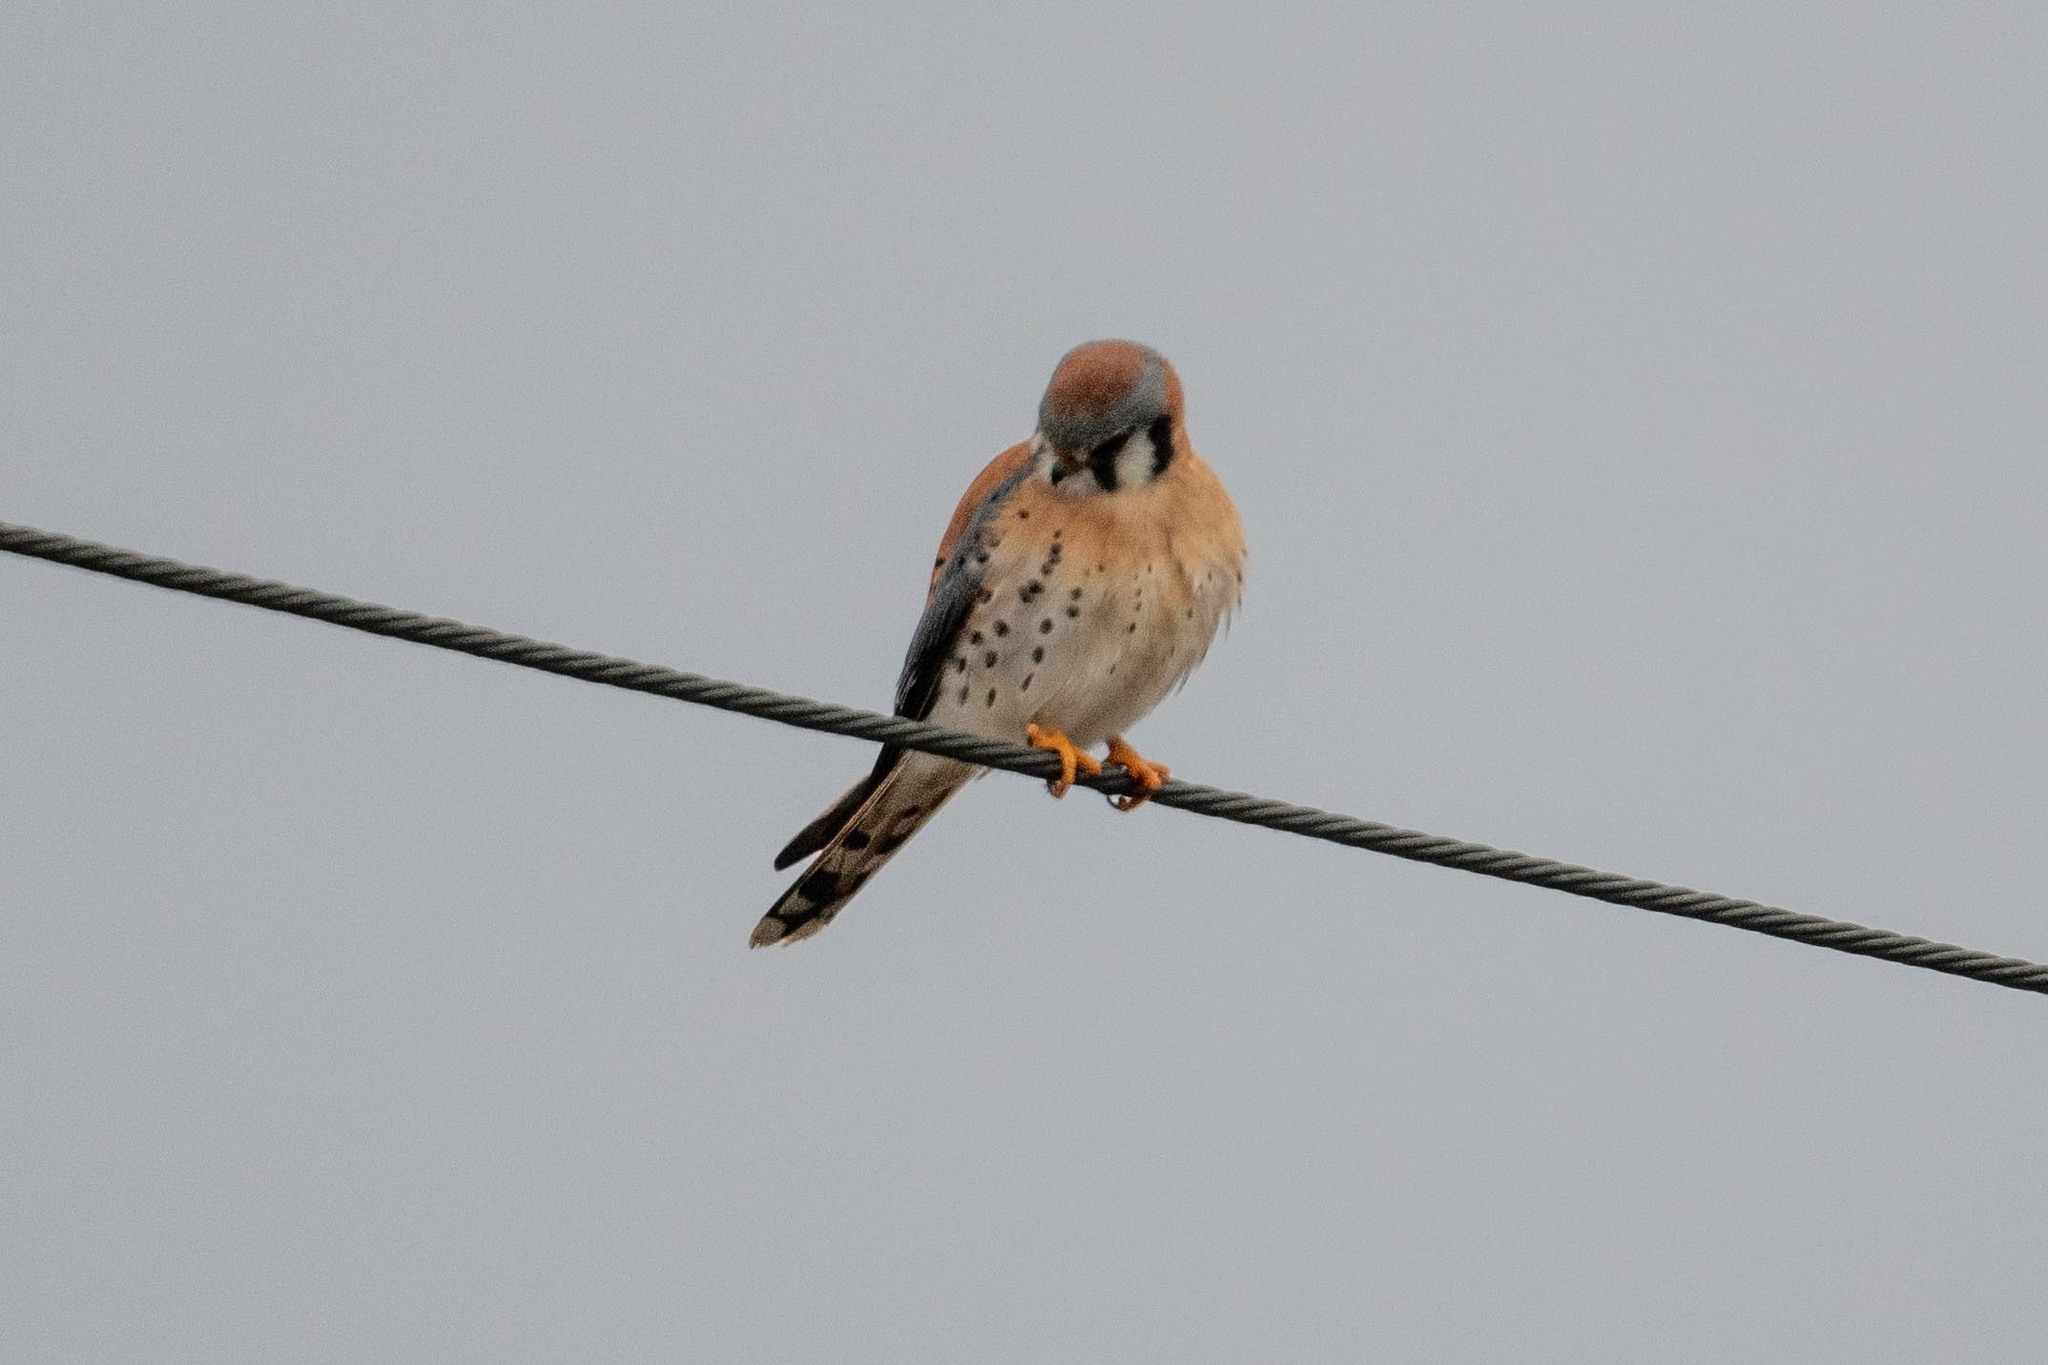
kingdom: Animalia
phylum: Chordata
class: Aves
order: Falconiformes
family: Falconidae
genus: Falco
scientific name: Falco sparverius
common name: American kestrel
